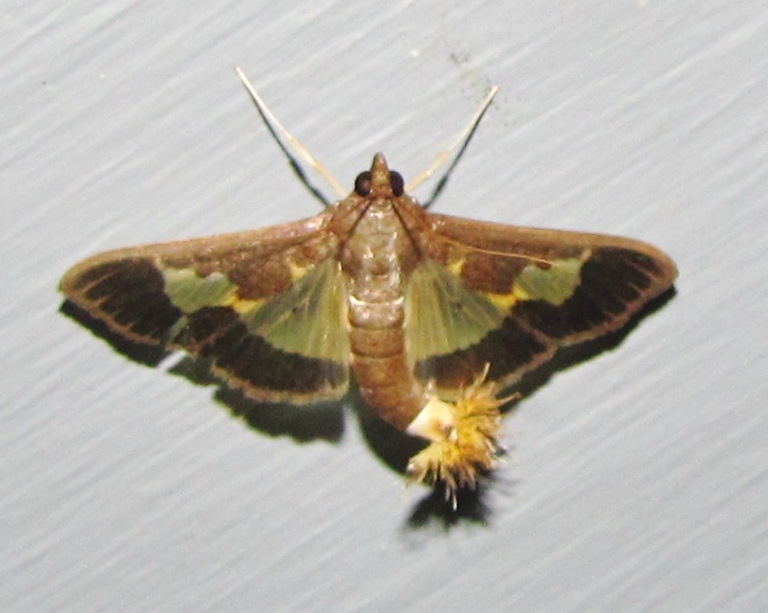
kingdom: Animalia
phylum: Arthropoda
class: Insecta
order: Lepidoptera
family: Crambidae
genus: Cryptographis
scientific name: Cryptographis nitidalis
